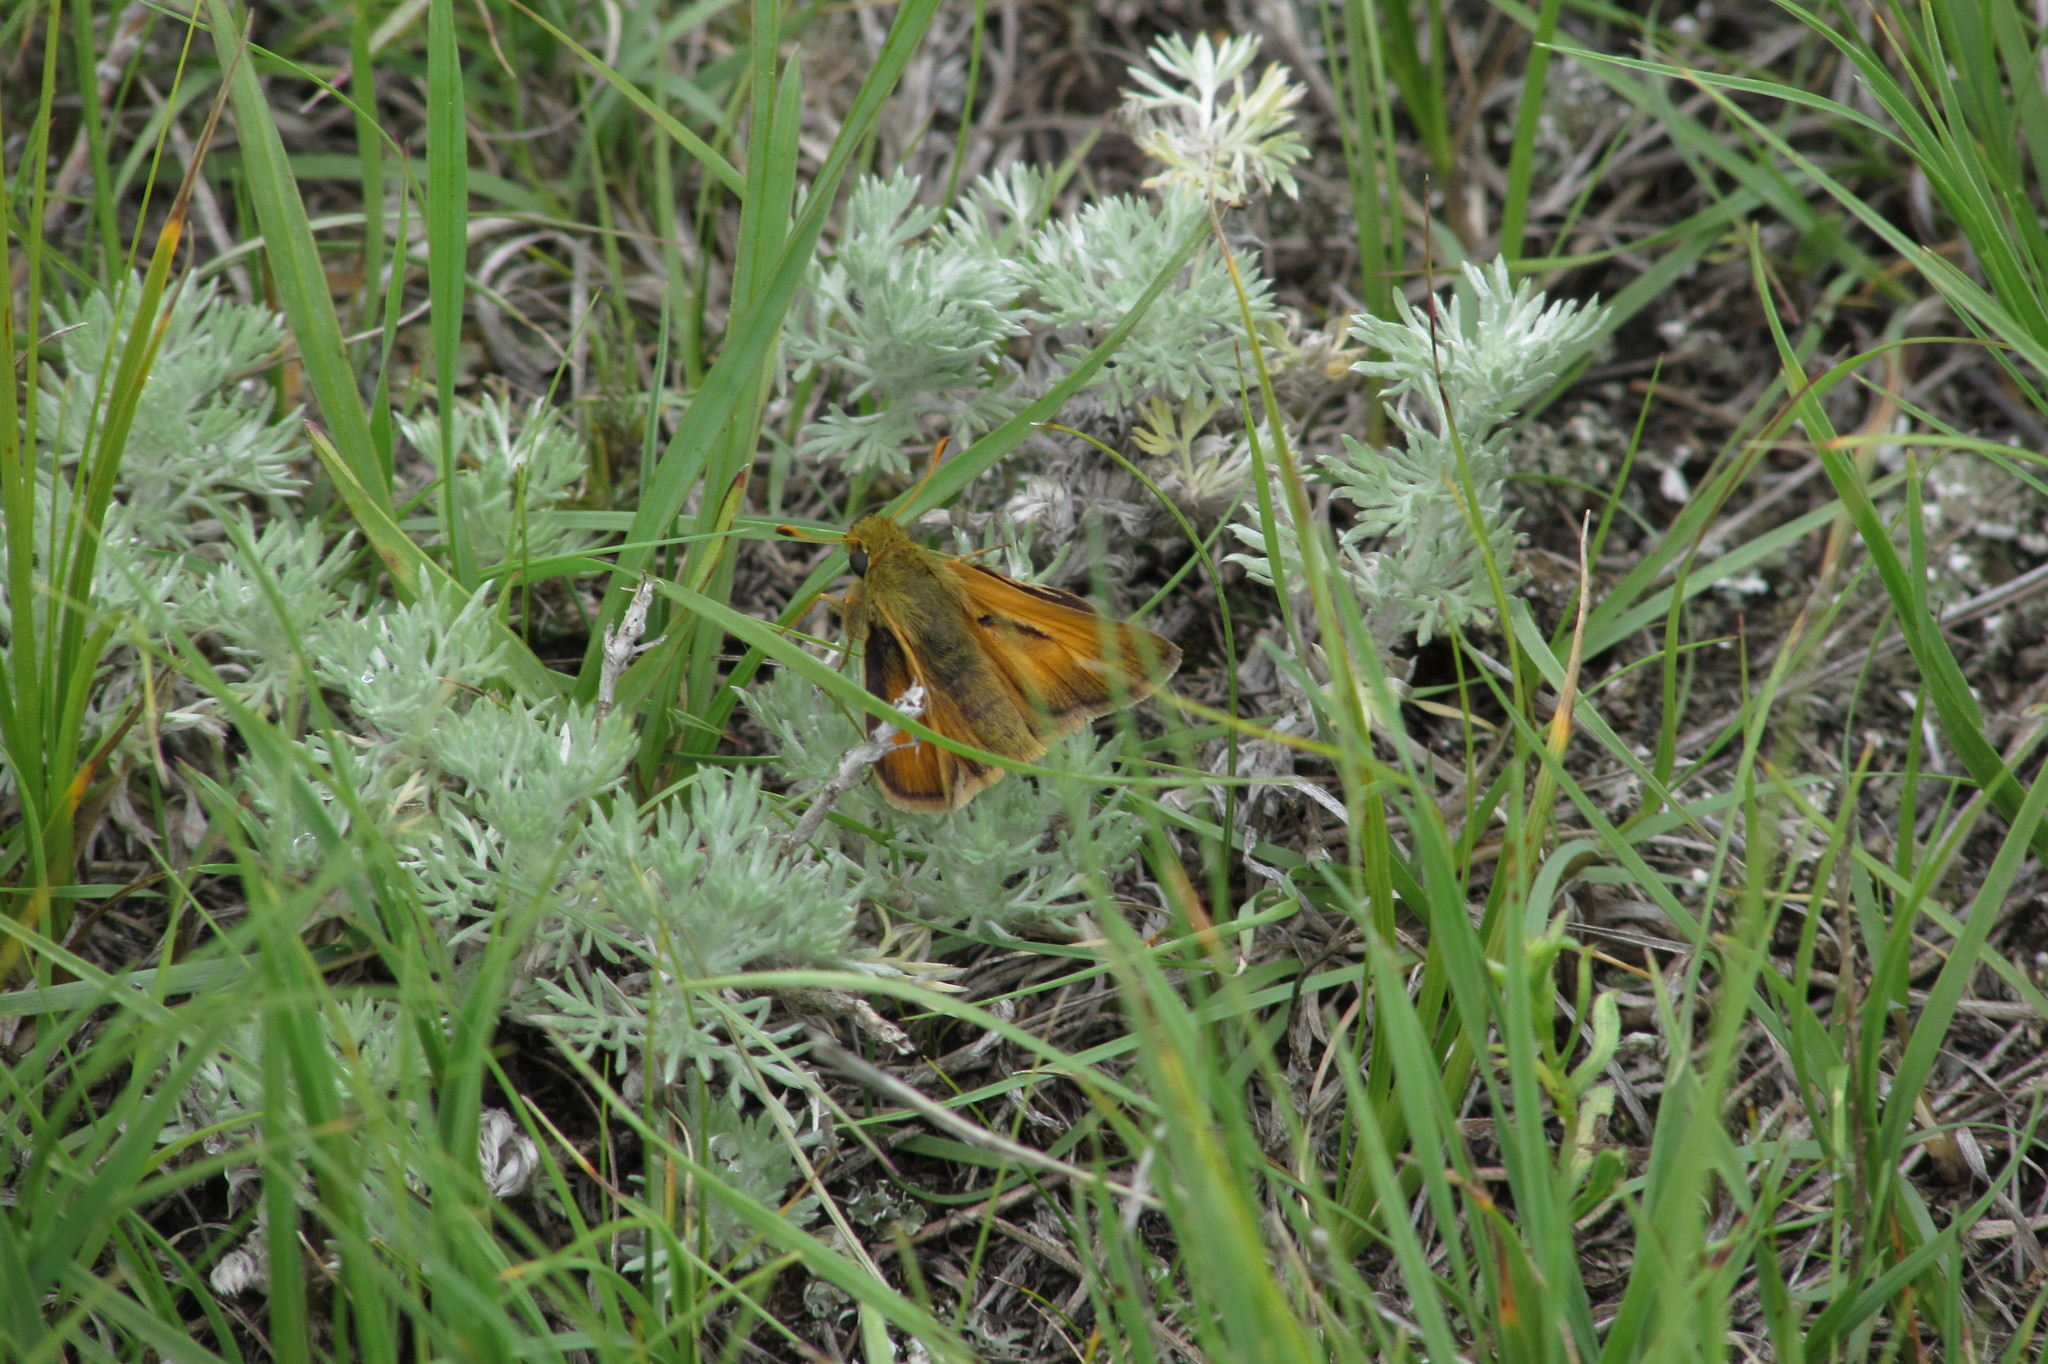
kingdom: Animalia
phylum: Arthropoda
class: Insecta
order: Lepidoptera
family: Hesperiidae
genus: Hesperia
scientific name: Hesperia dacotae
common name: Dakota skipper
